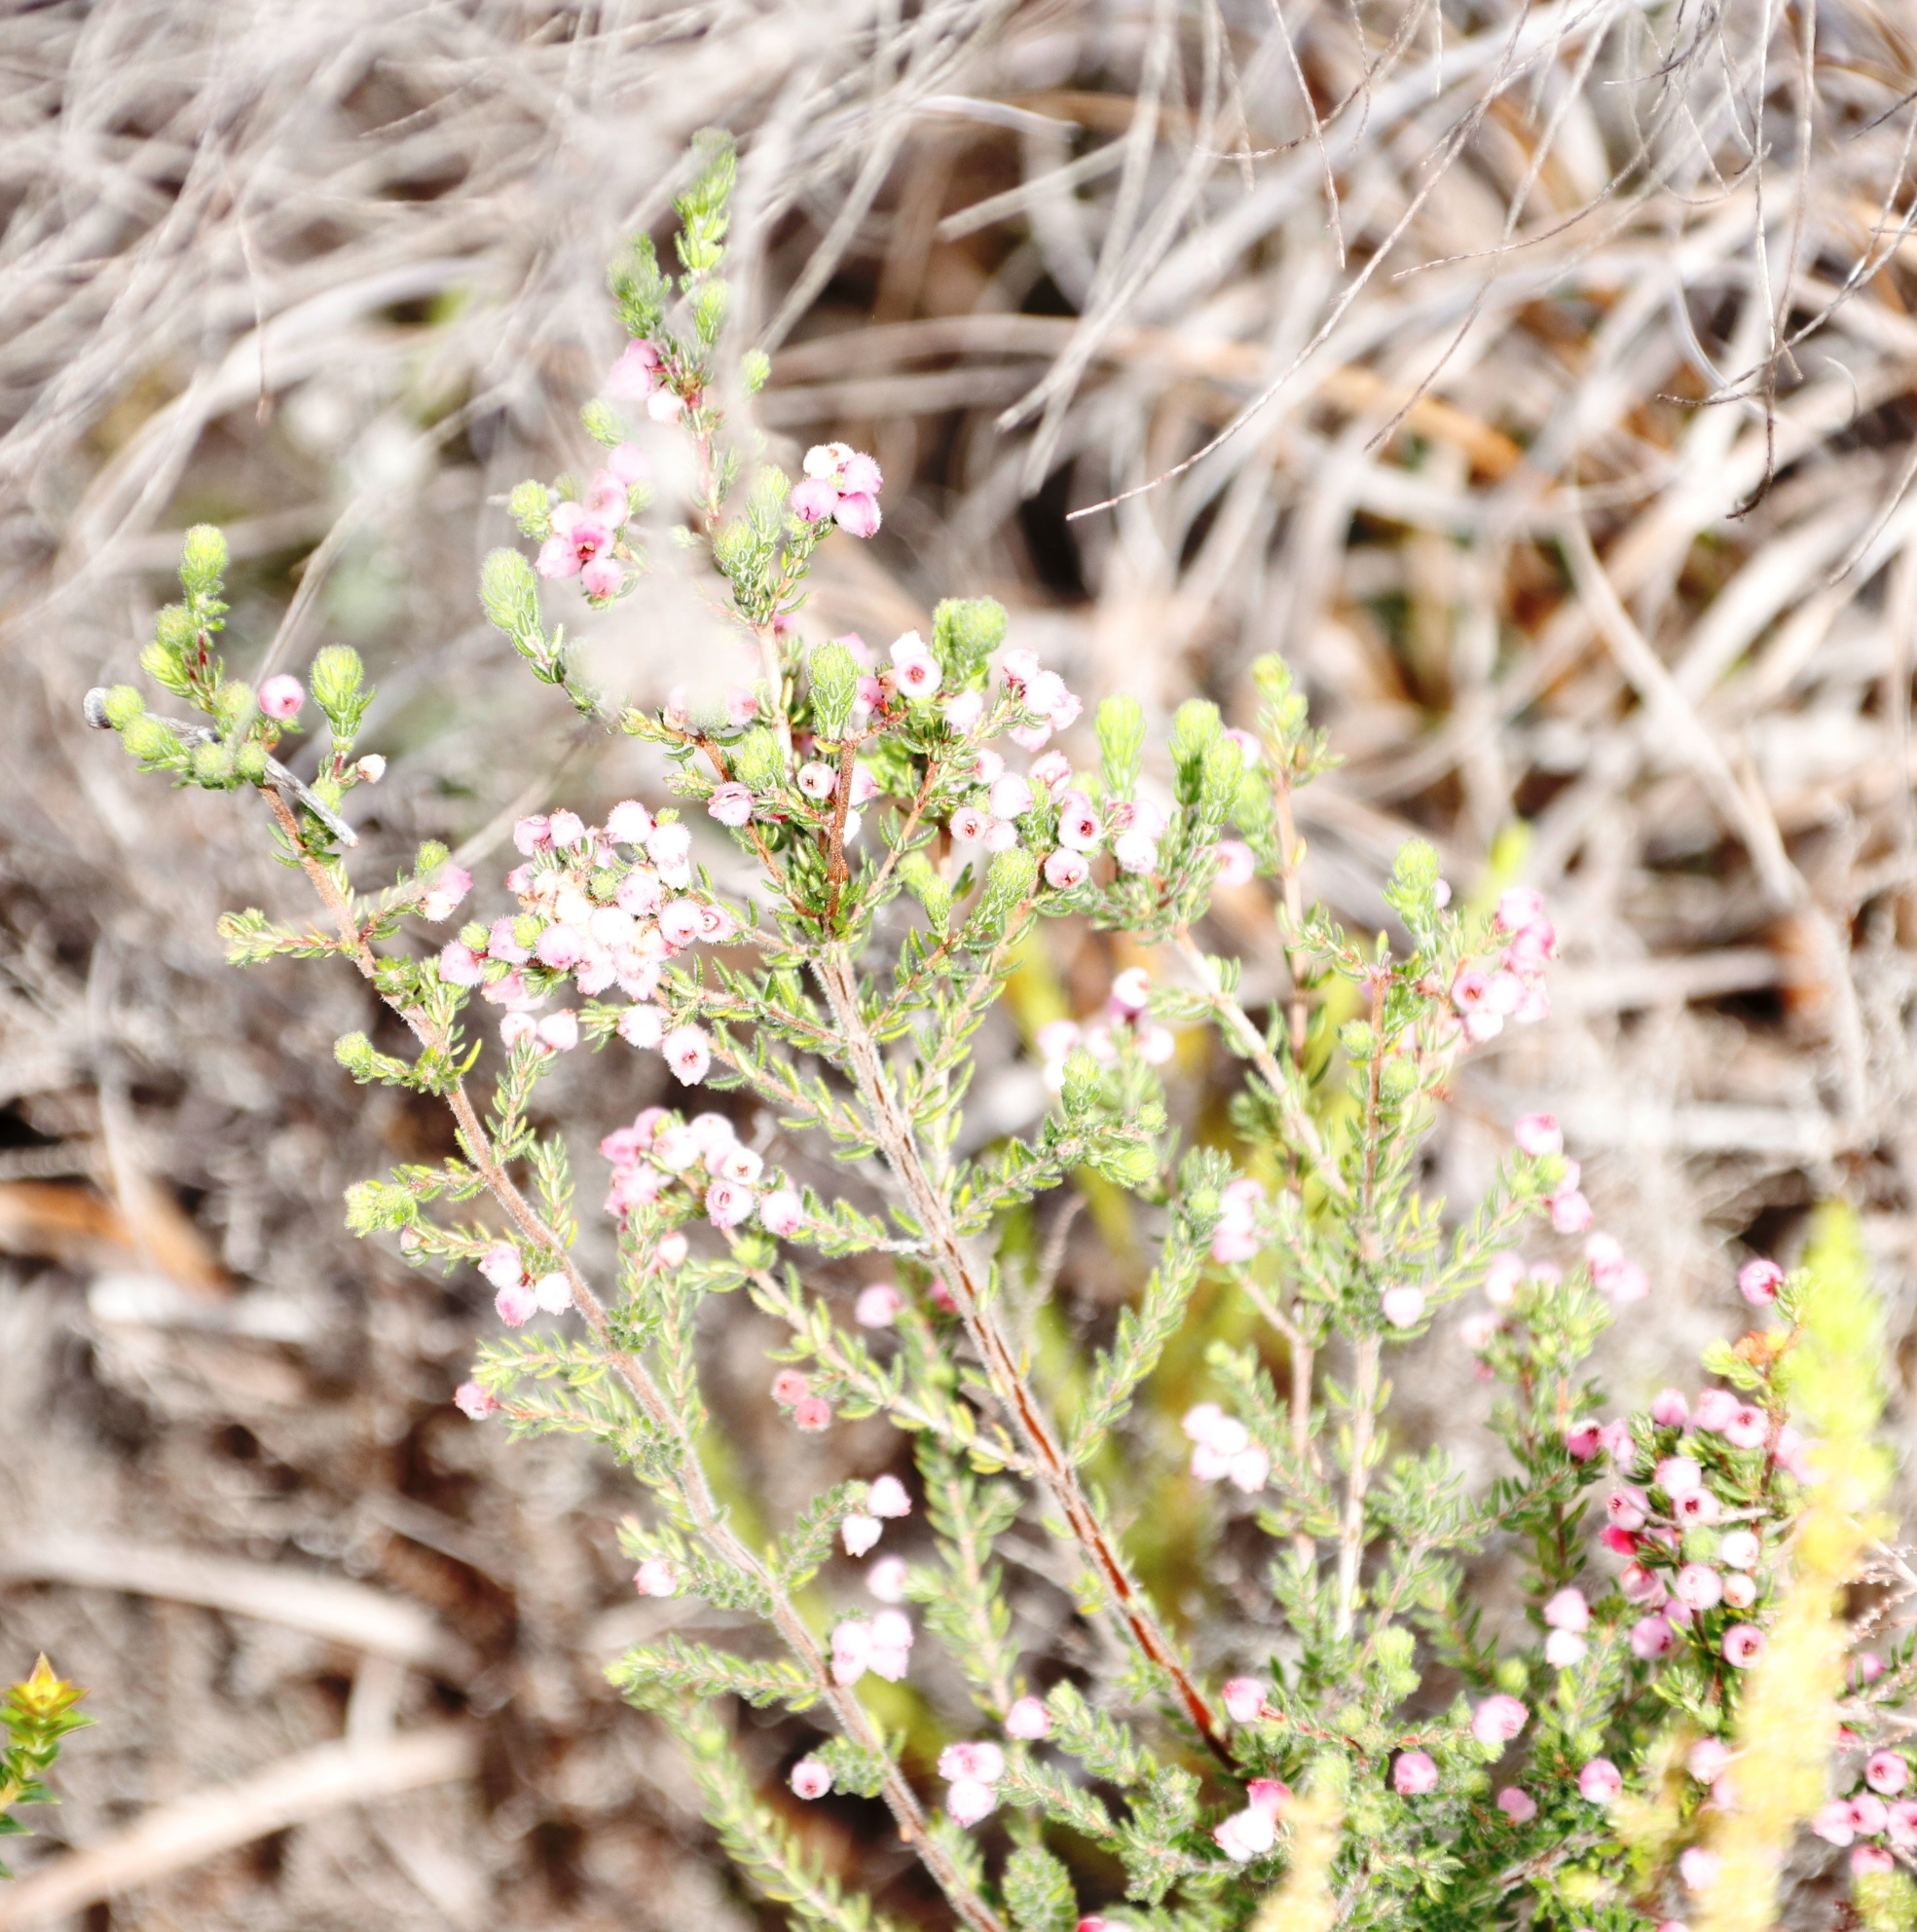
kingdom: Plantae
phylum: Tracheophyta
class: Magnoliopsida
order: Ericales
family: Ericaceae
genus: Erica
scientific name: Erica hirtiflora
